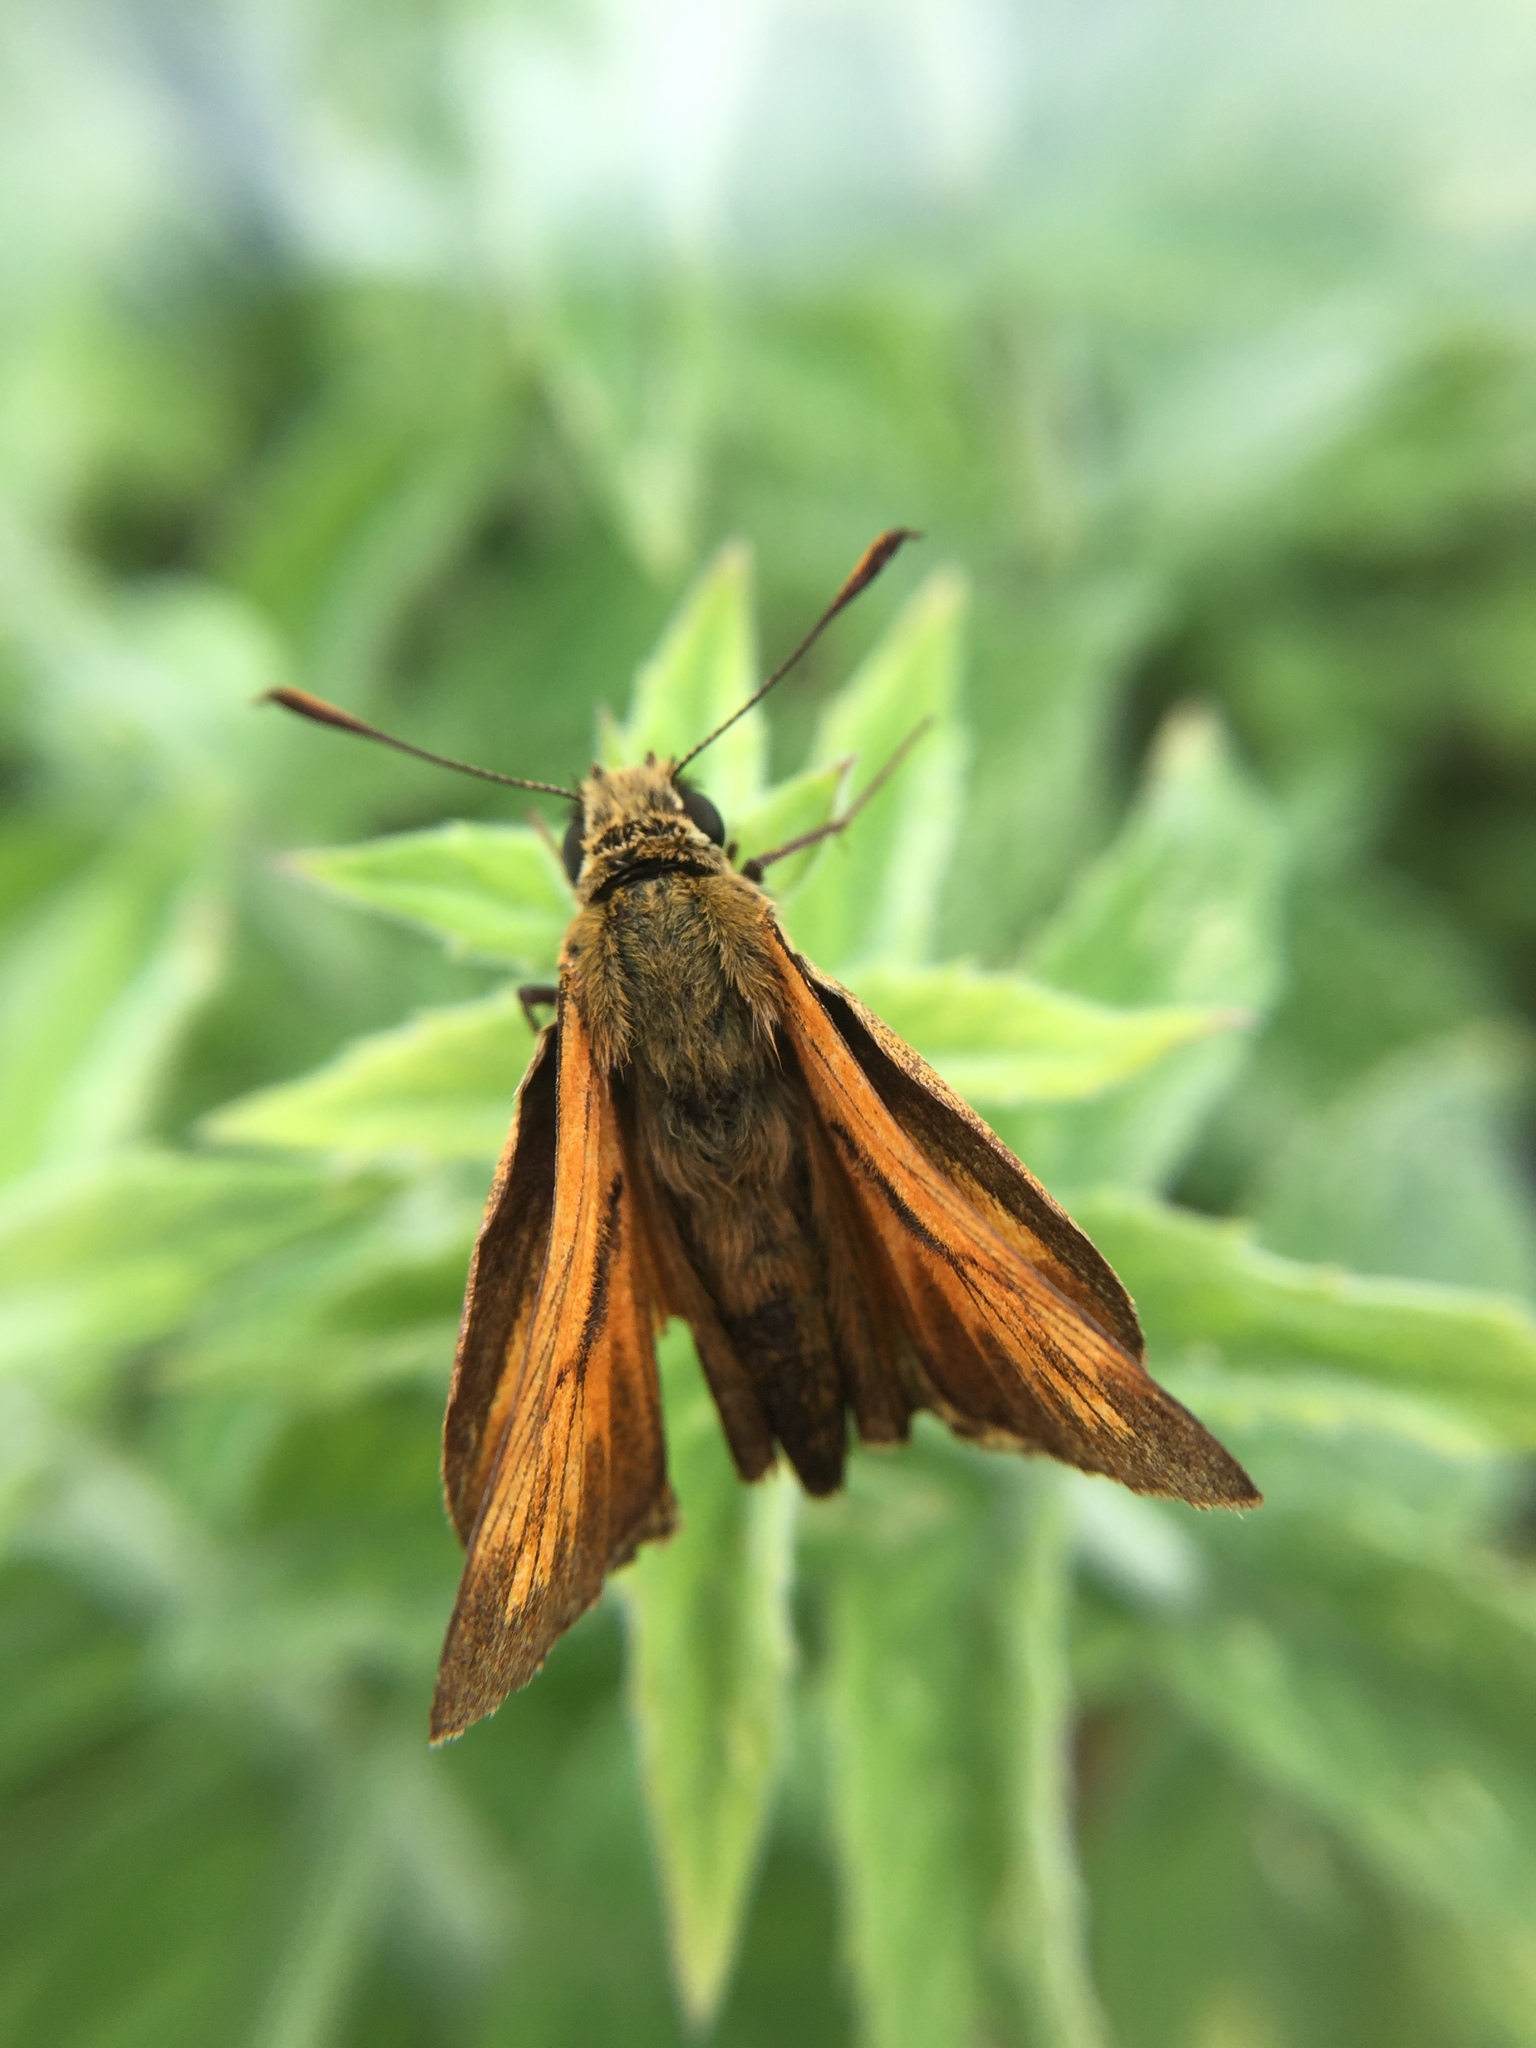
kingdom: Animalia
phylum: Arthropoda
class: Insecta
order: Lepidoptera
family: Hesperiidae
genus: Ochlodes
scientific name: Ochlodes venata
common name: Large skipper
